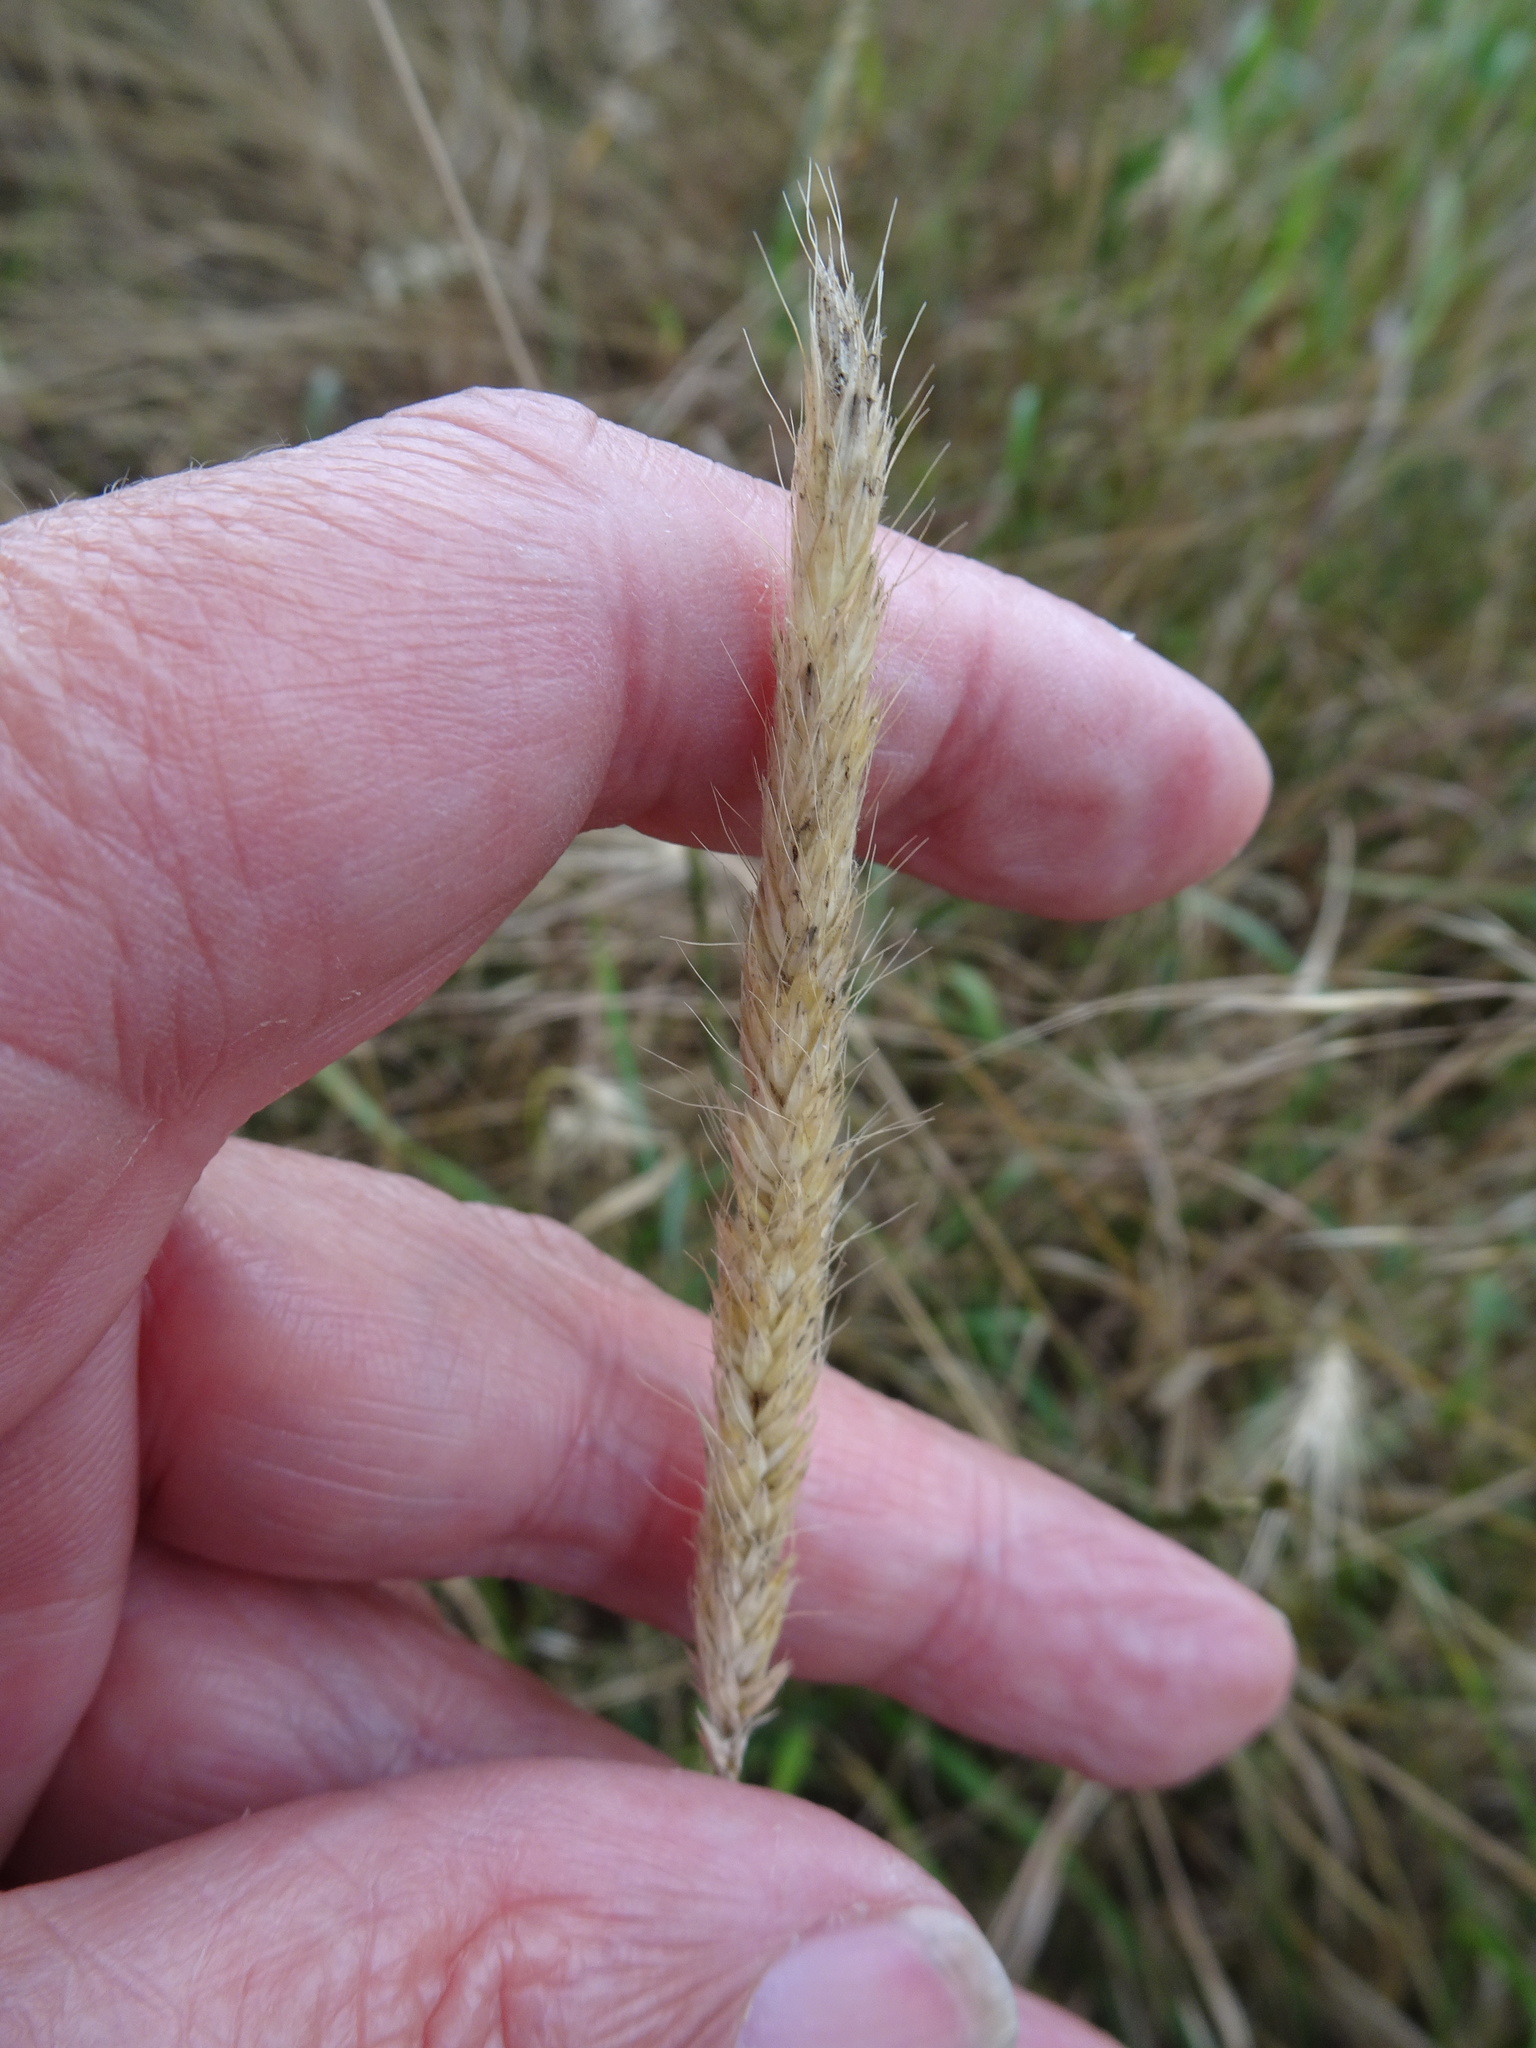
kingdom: Plantae
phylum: Tracheophyta
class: Liliopsida
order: Poales
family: Poaceae
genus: Alopecurus
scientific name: Alopecurus pratensis
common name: Meadow foxtail
